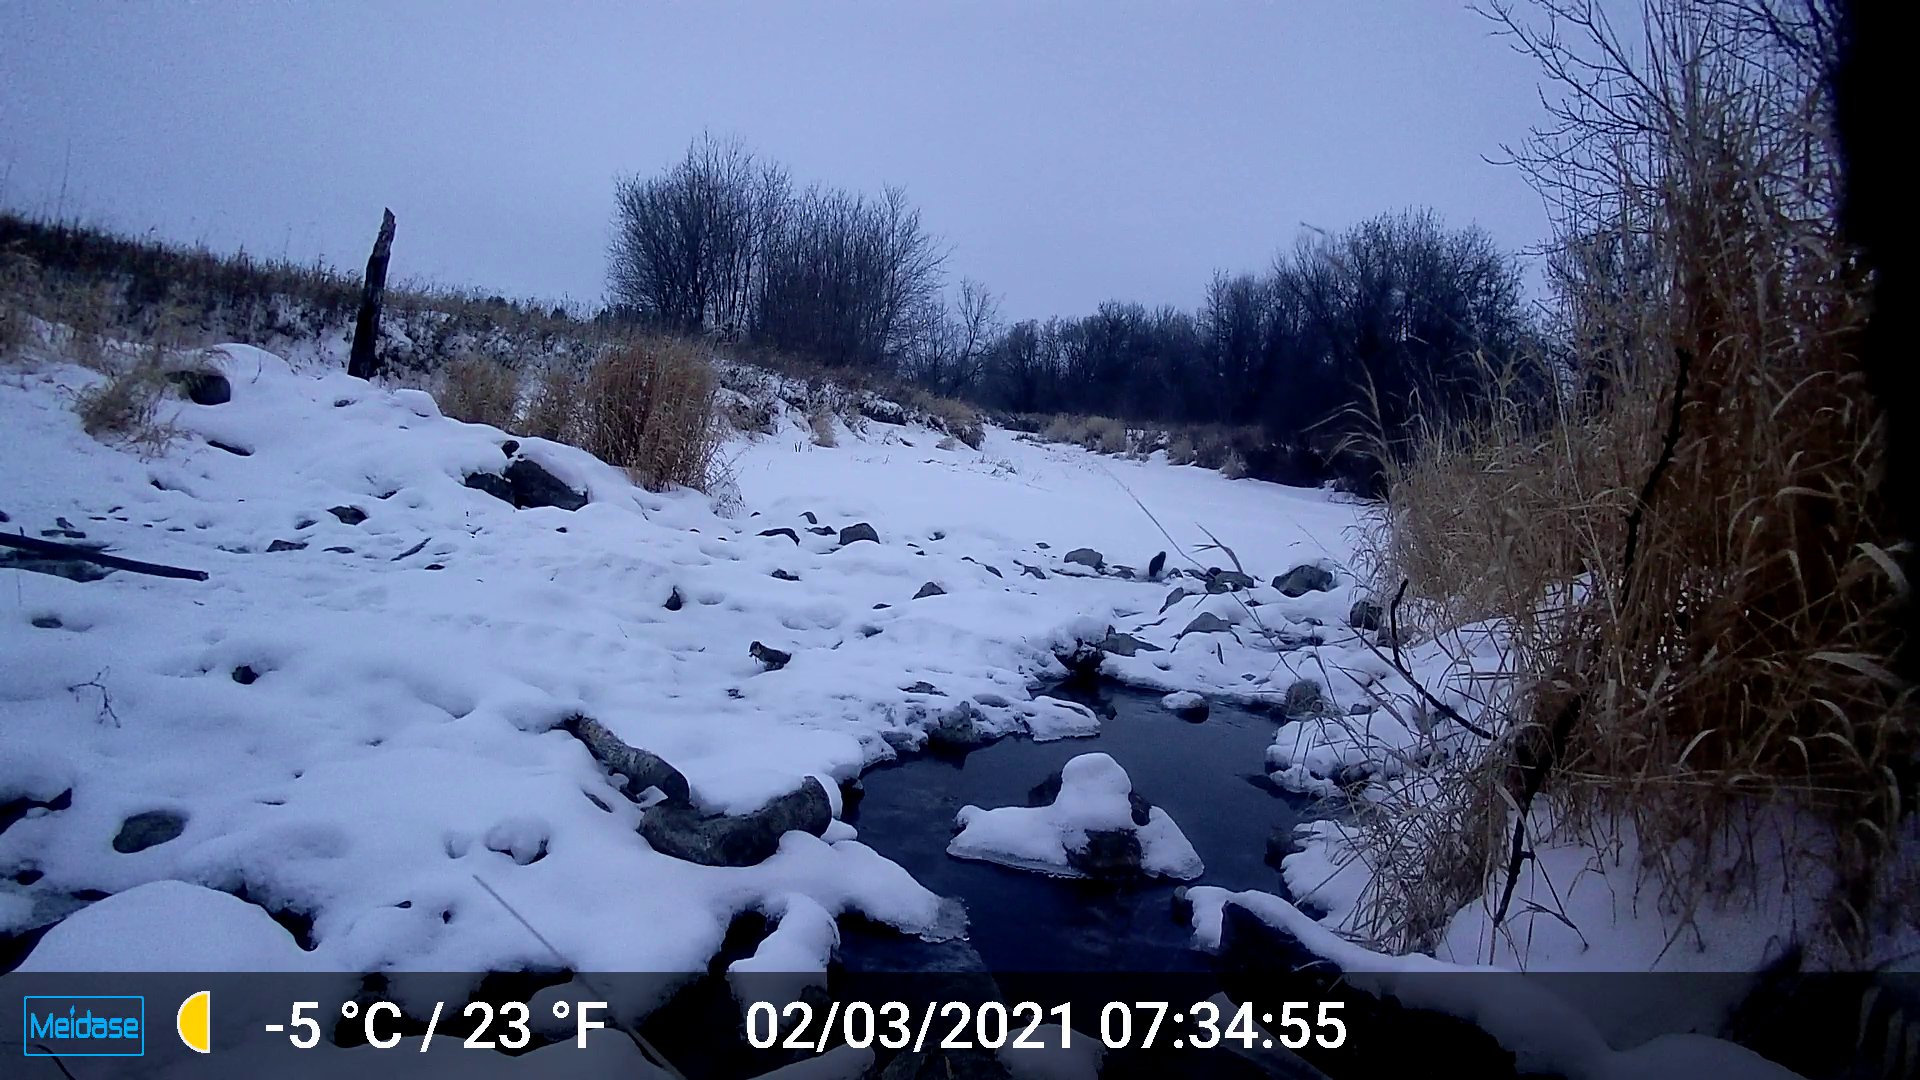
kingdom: Animalia
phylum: Chordata
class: Mammalia
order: Carnivora
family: Mustelidae
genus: Mustela
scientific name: Mustela
